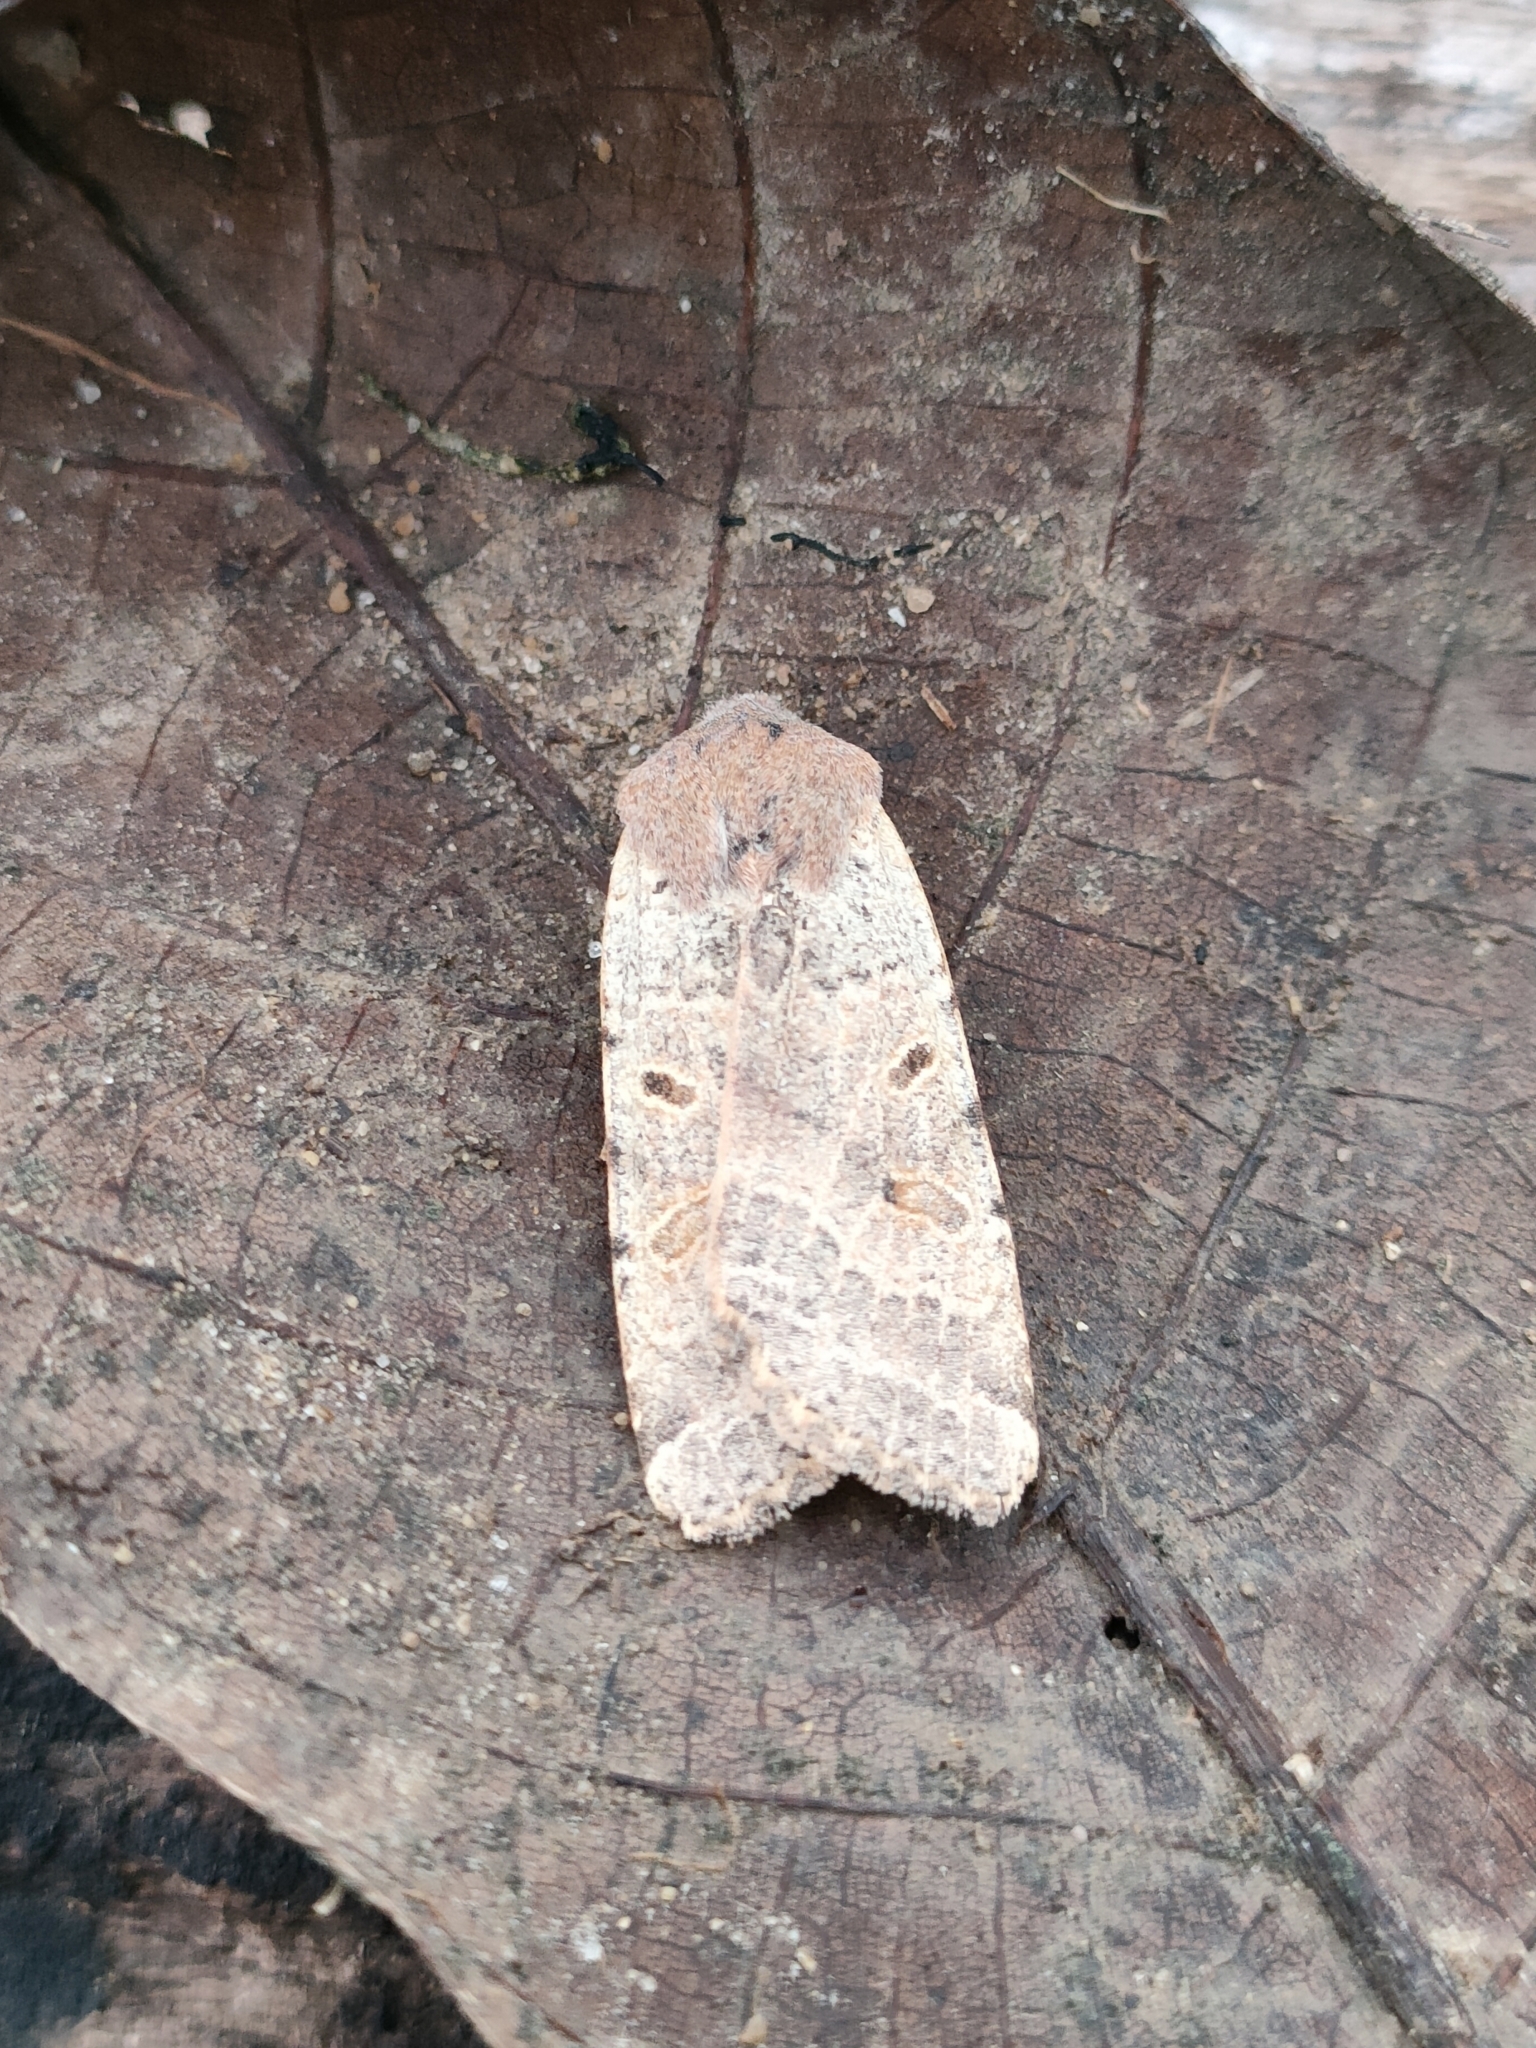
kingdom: Animalia
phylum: Arthropoda
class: Insecta
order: Lepidoptera
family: Noctuidae
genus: Agrochola
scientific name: Agrochola lychnidis
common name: Beaded chestnut
